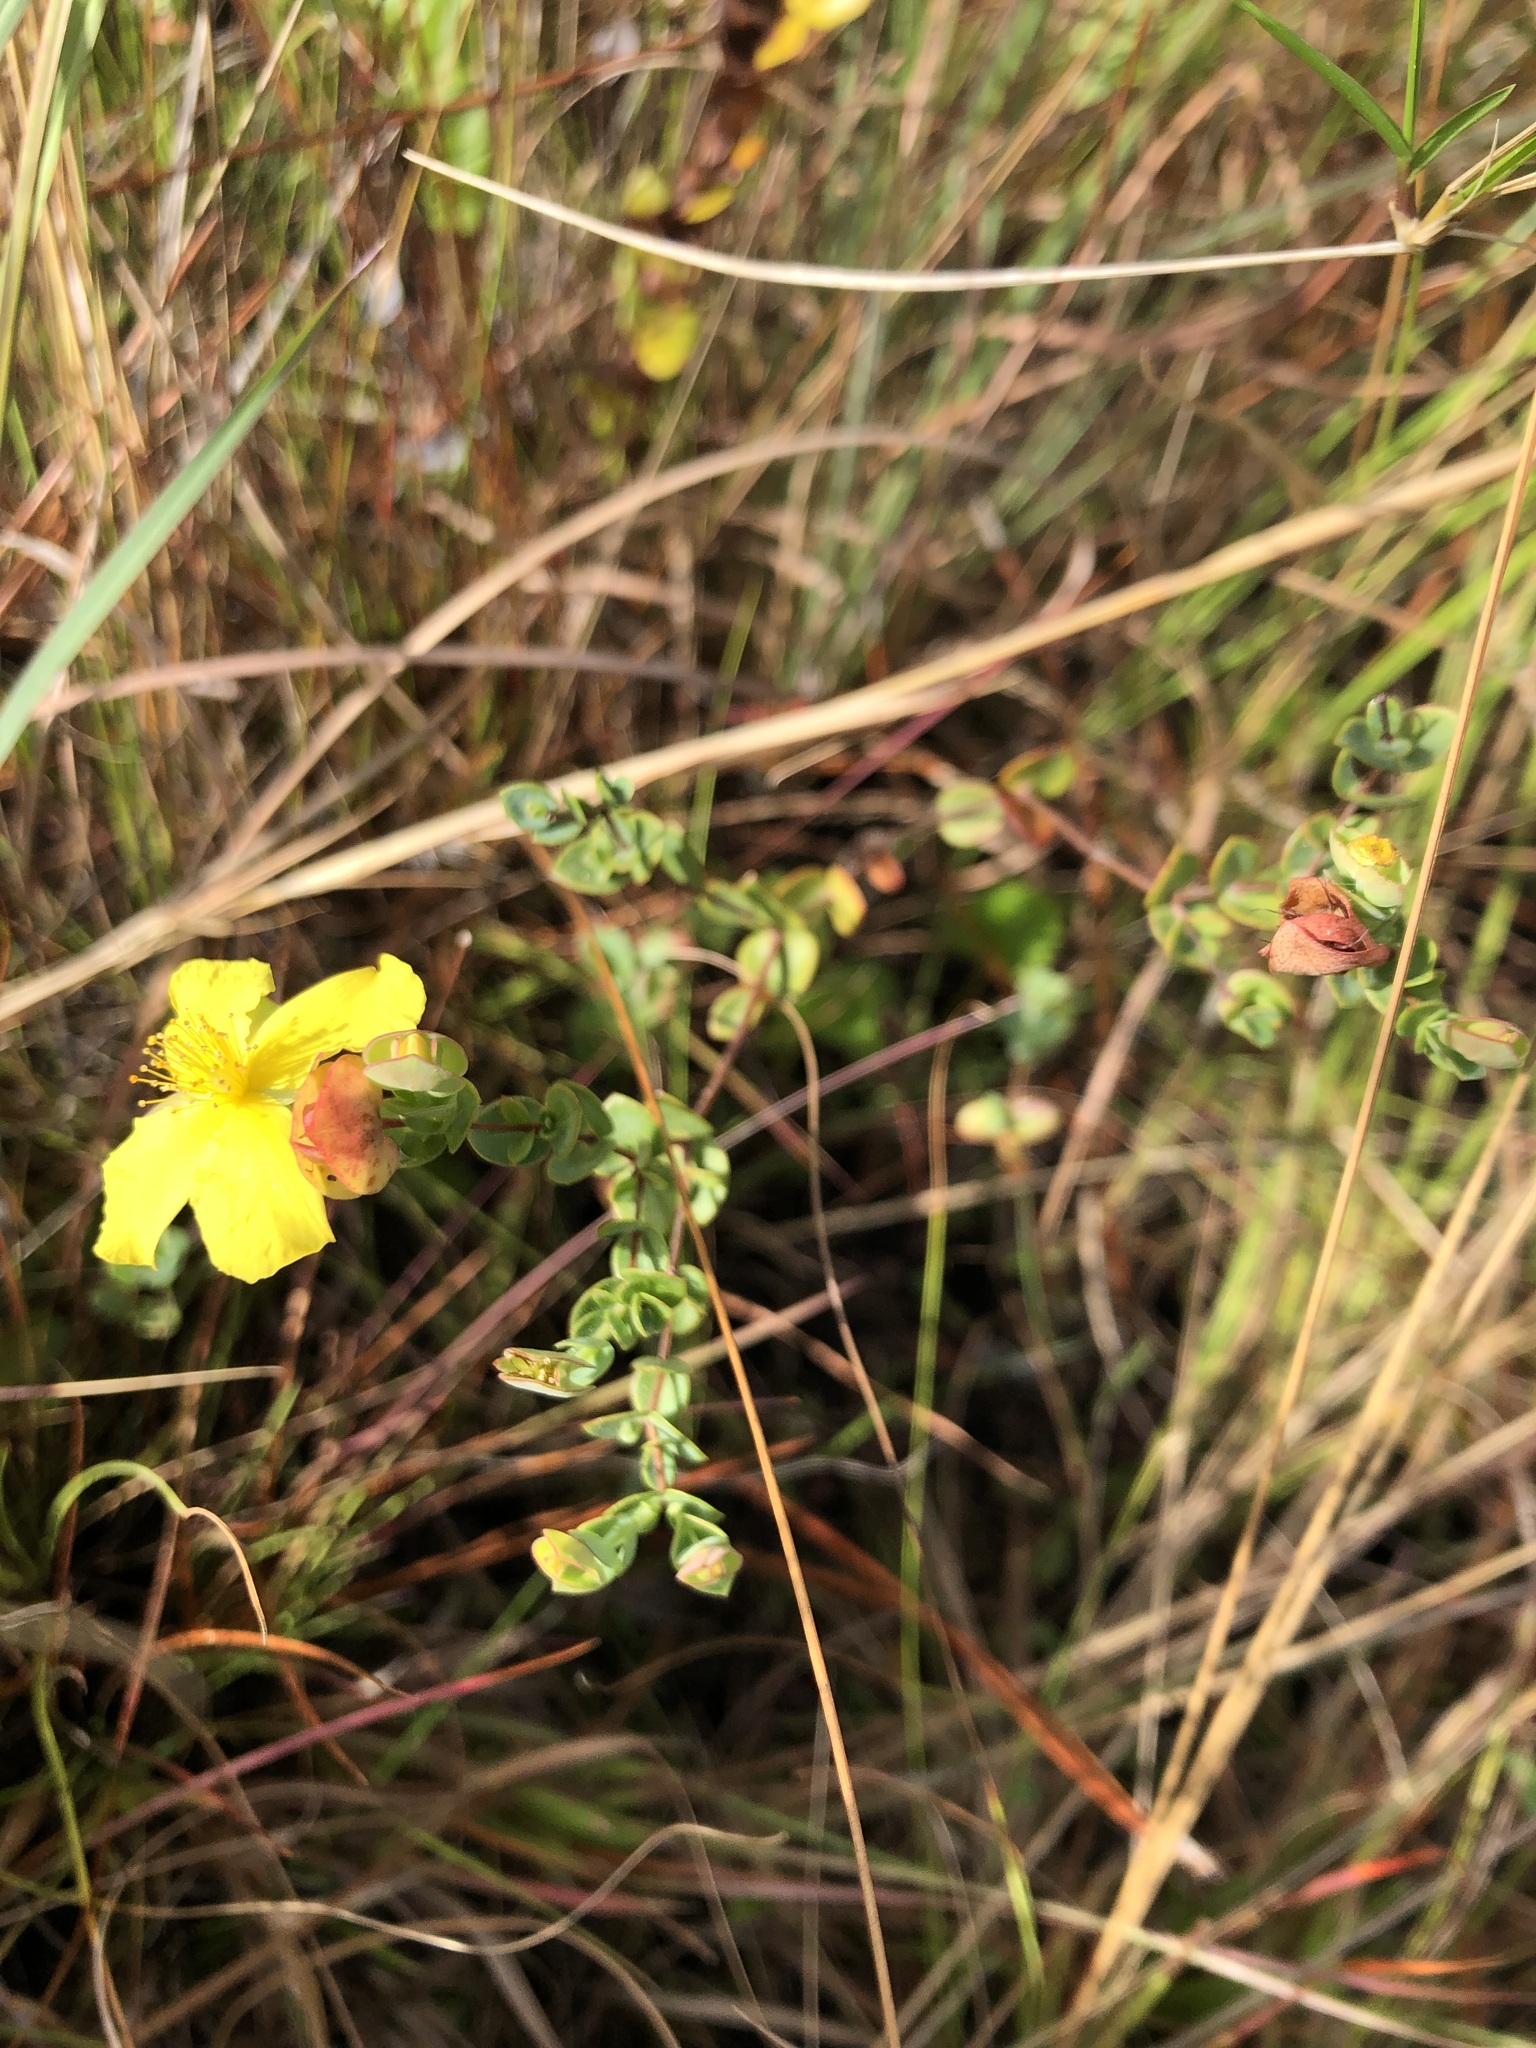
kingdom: Plantae
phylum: Tracheophyta
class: Magnoliopsida
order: Malpighiales
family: Hypericaceae
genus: Hypericum
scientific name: Hypericum tetrapetalum
